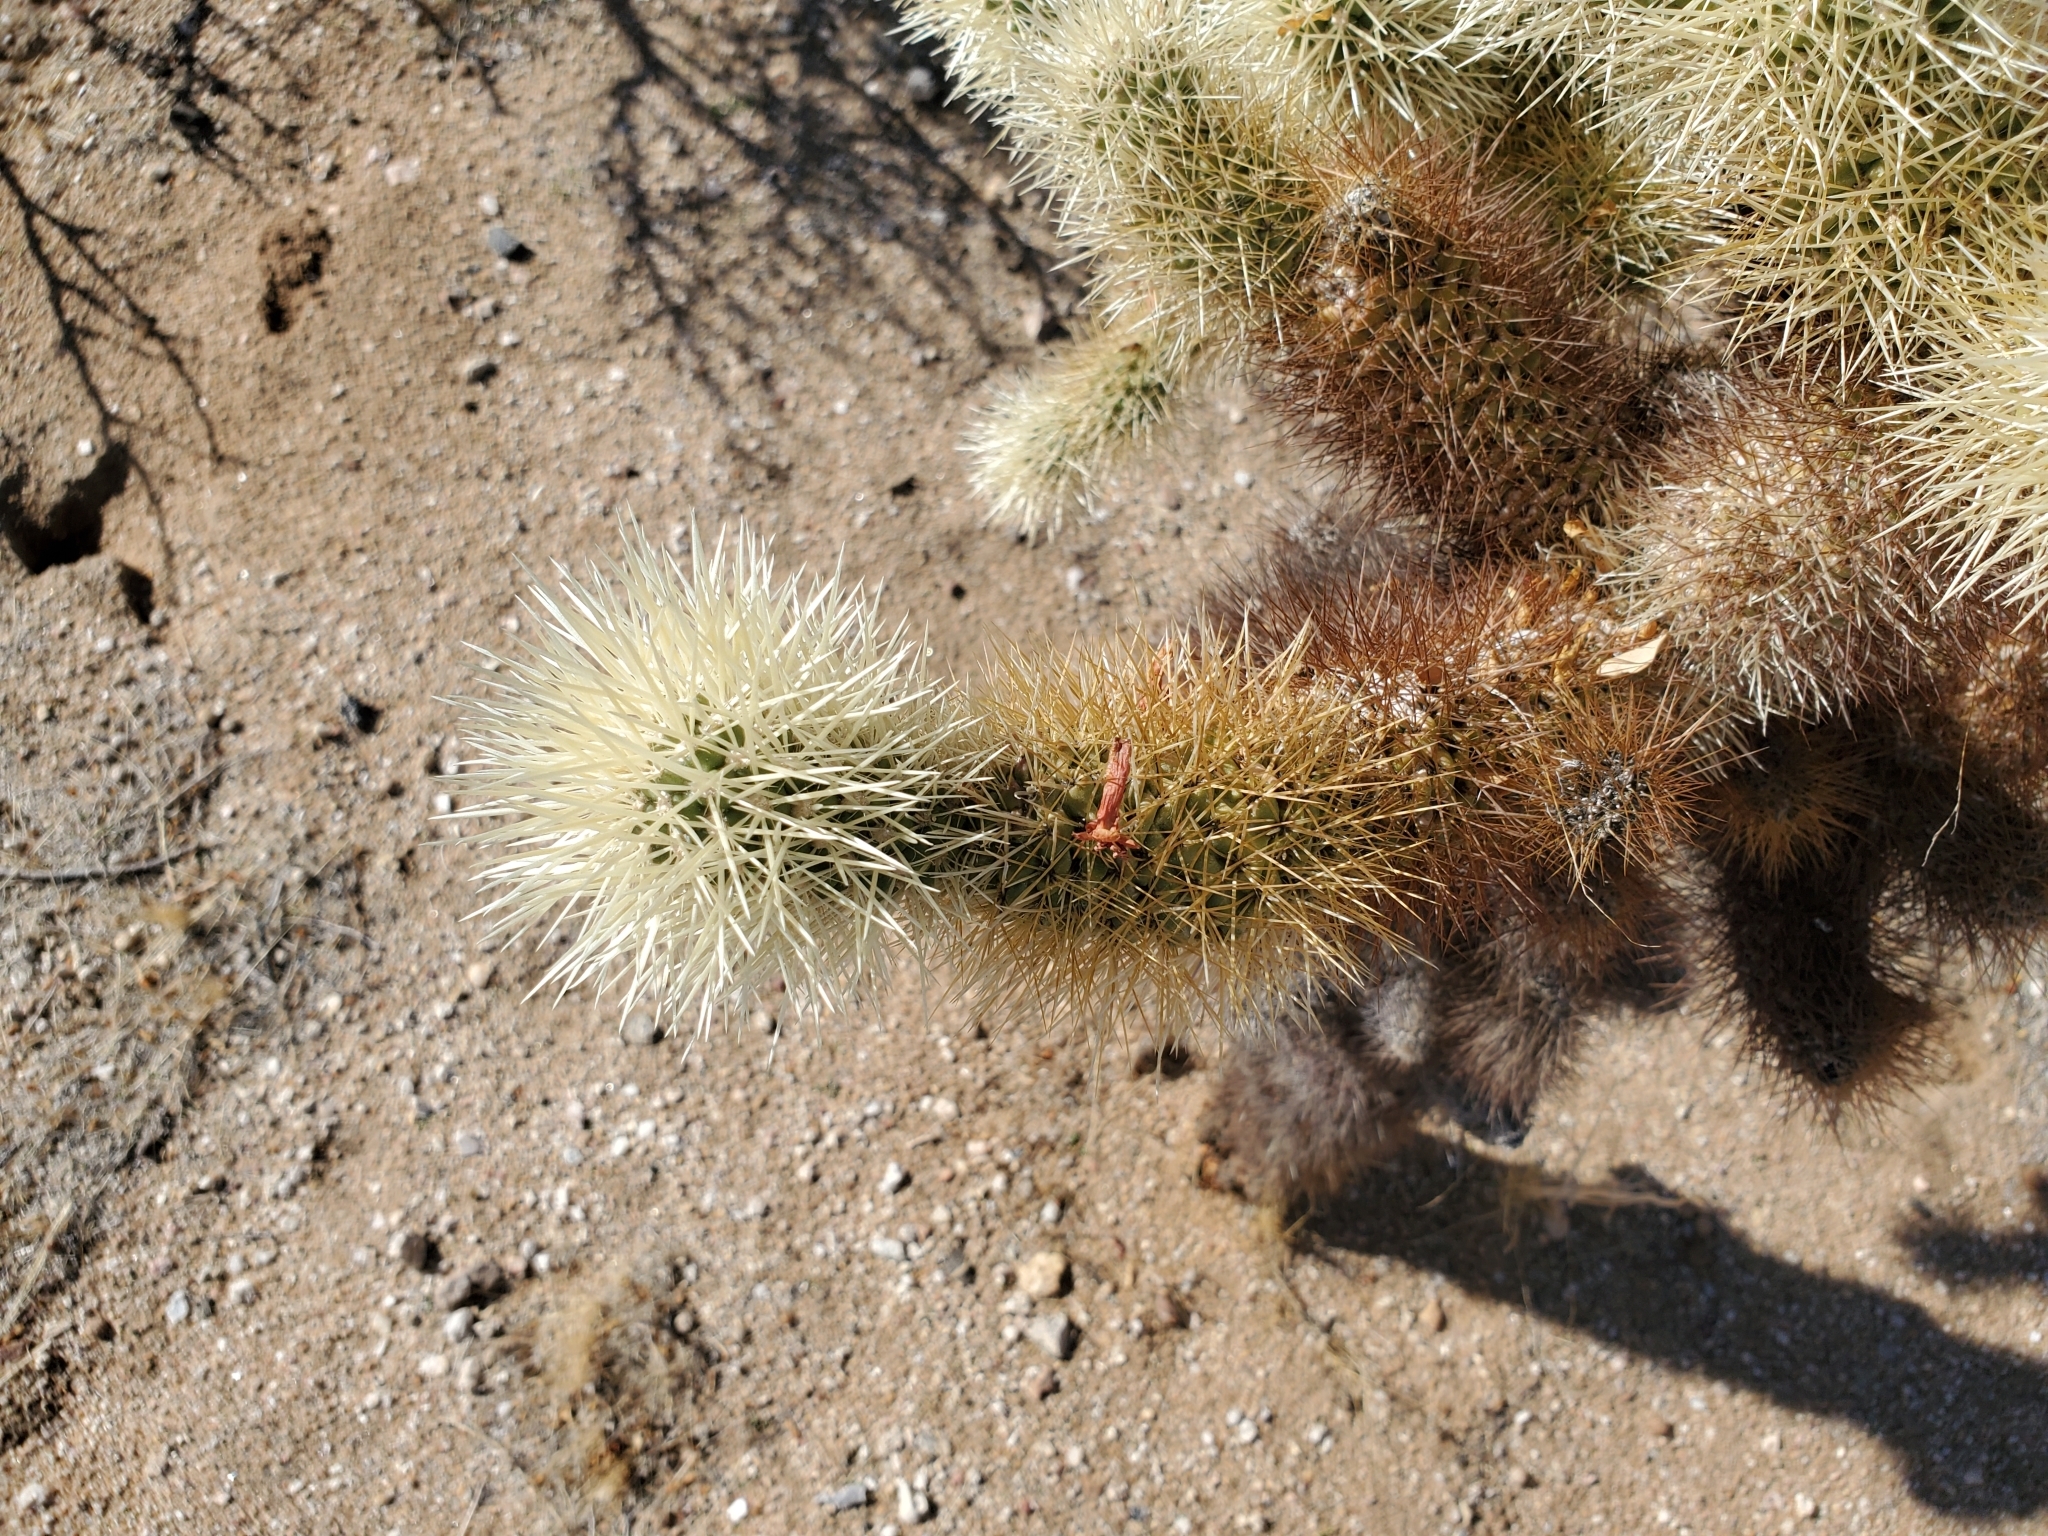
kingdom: Plantae
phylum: Tracheophyta
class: Magnoliopsida
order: Caryophyllales
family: Cactaceae
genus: Cylindropuntia
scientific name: Cylindropuntia fosbergii
